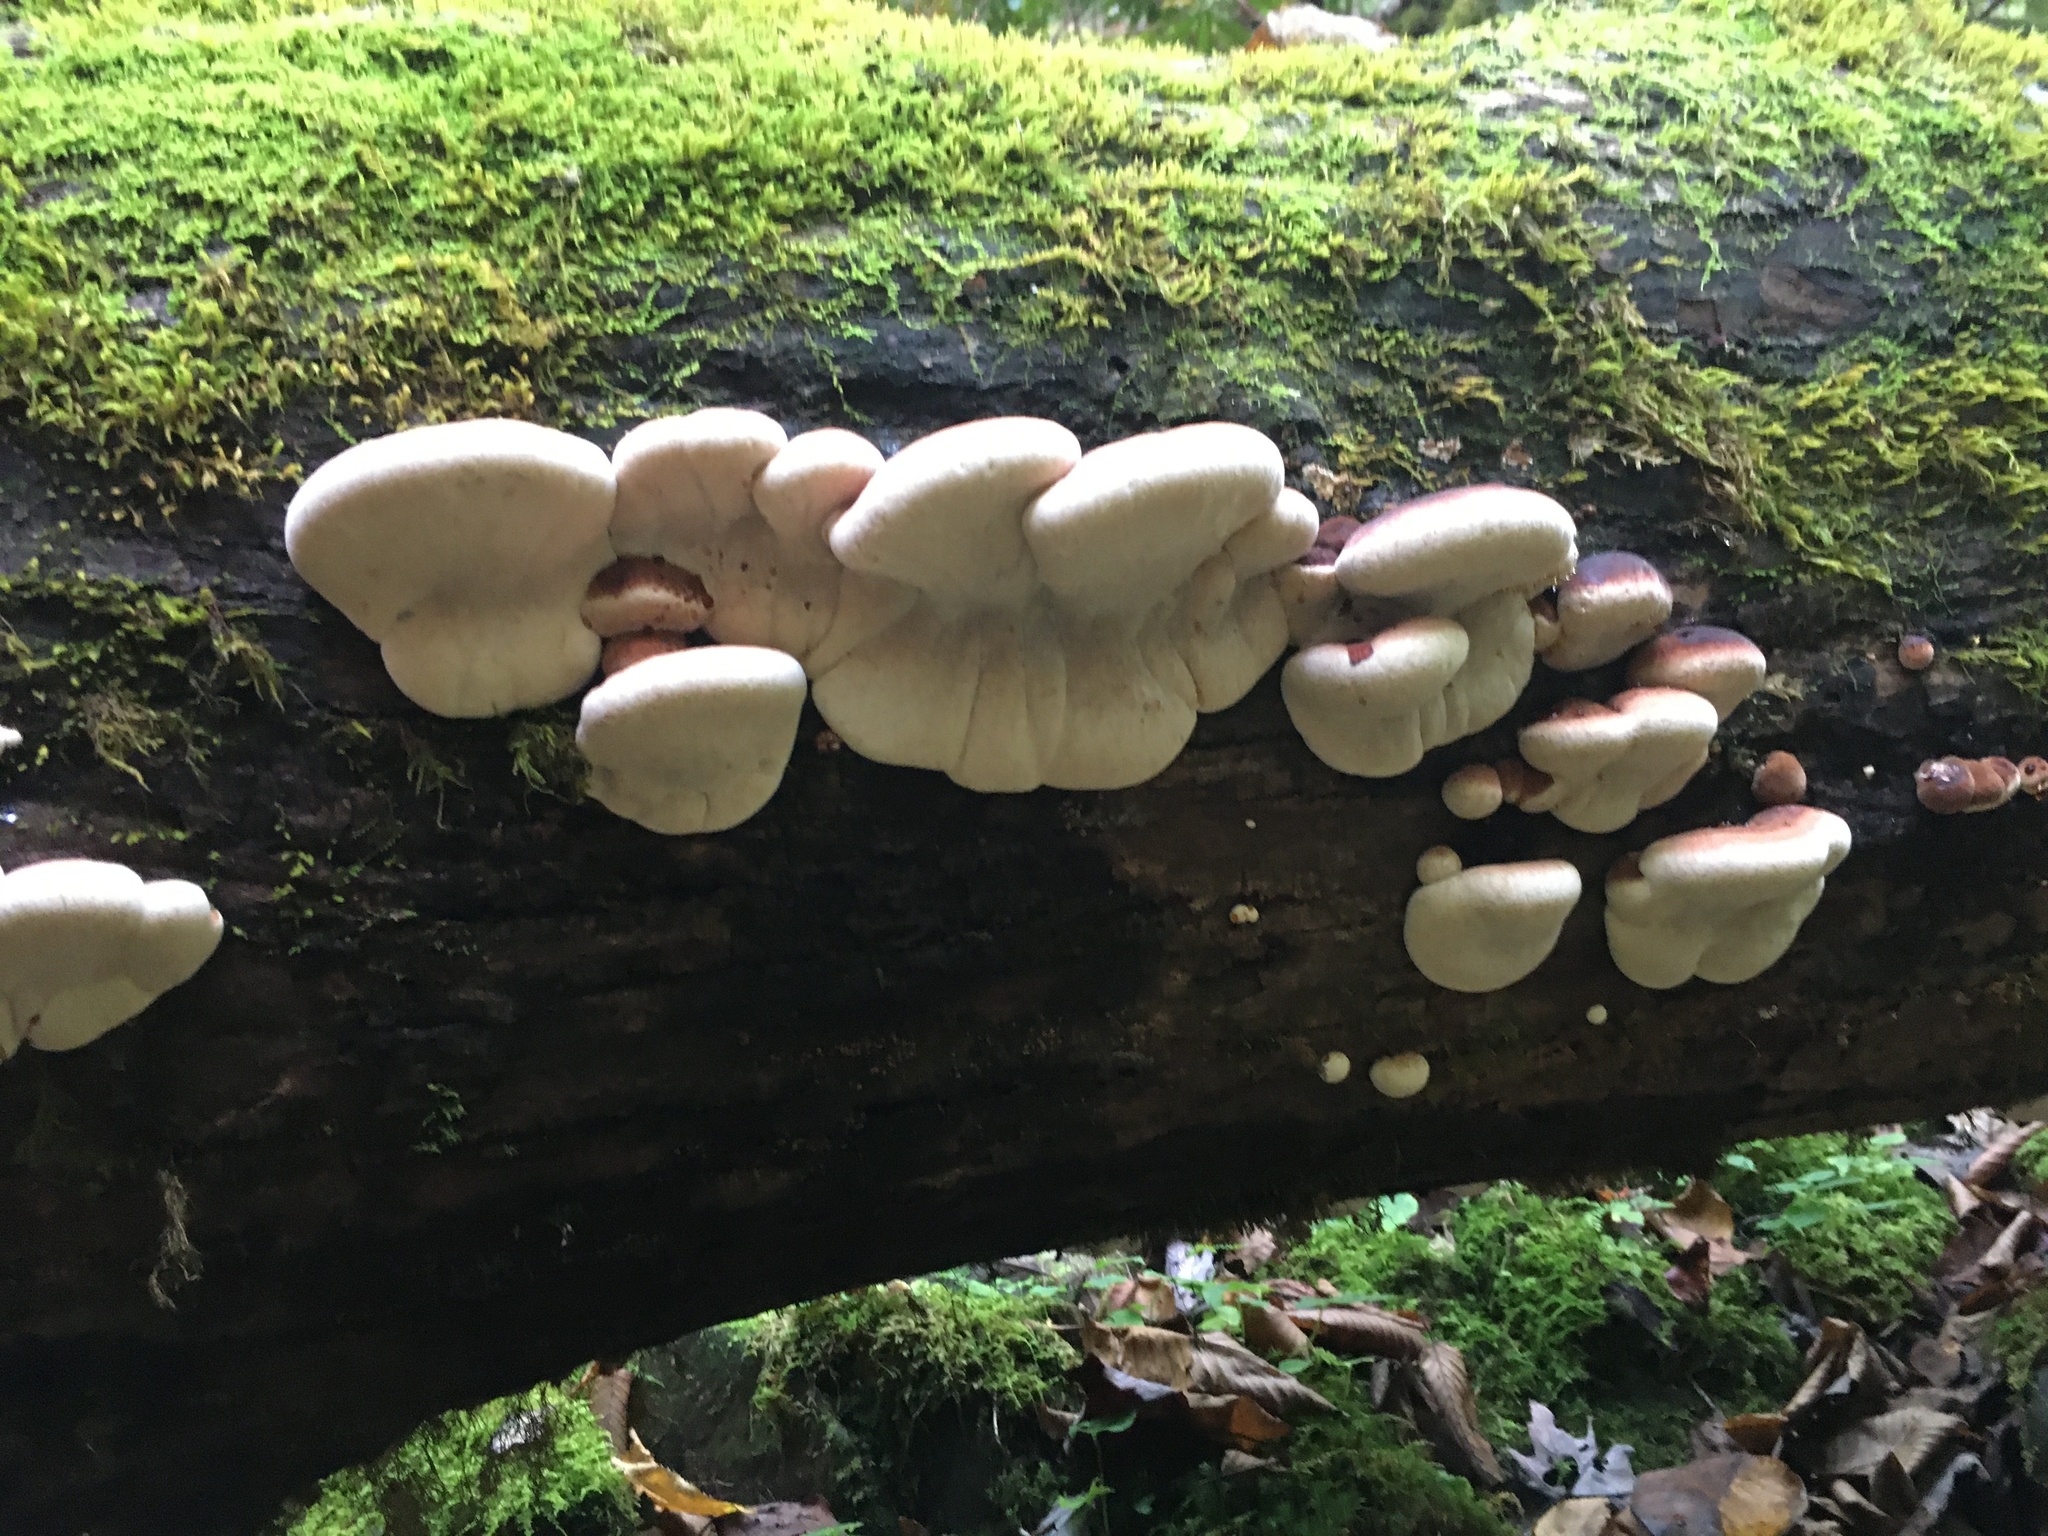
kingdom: Fungi
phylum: Basidiomycota
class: Agaricomycetes
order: Polyporales
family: Ischnodermataceae
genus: Ischnoderma
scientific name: Ischnoderma resinosum
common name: Resinous polypore
